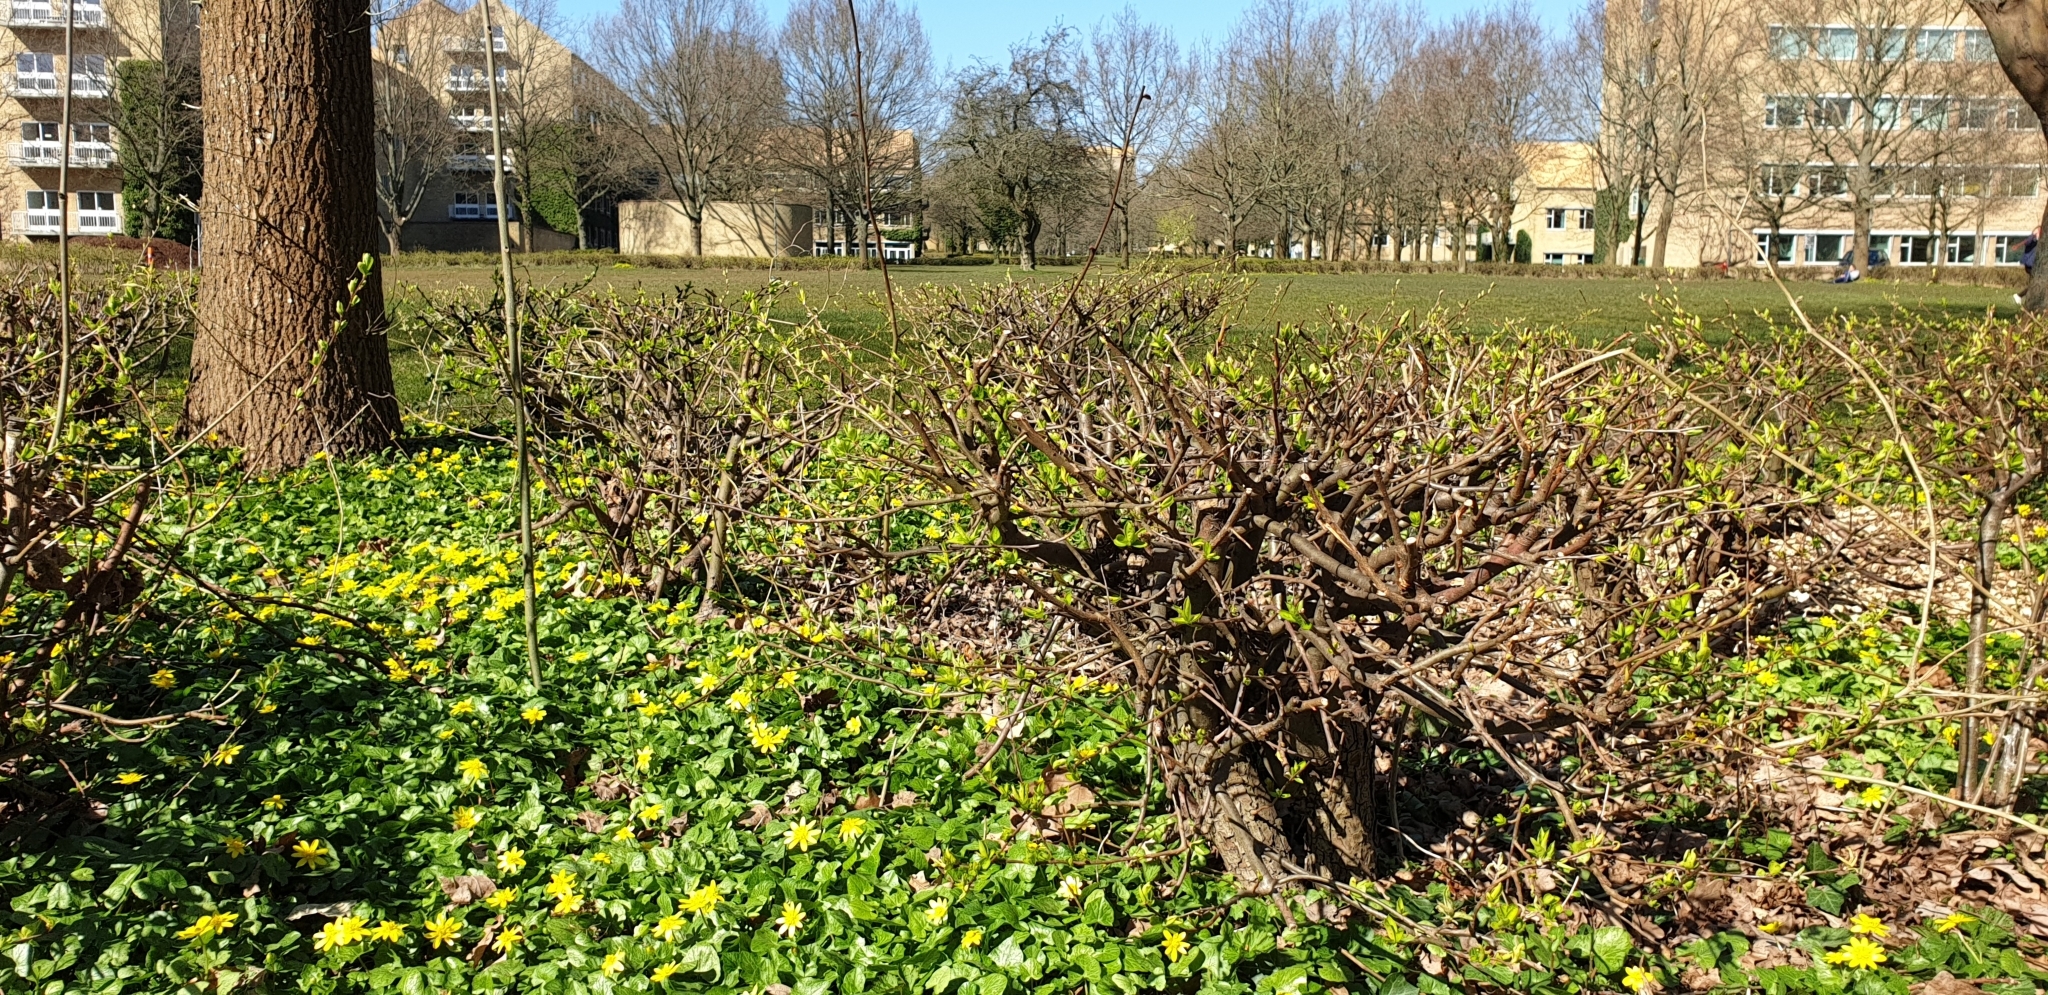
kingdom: Plantae
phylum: Tracheophyta
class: Magnoliopsida
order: Ranunculales
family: Ranunculaceae
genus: Ficaria
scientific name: Ficaria verna
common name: Lesser celandine
